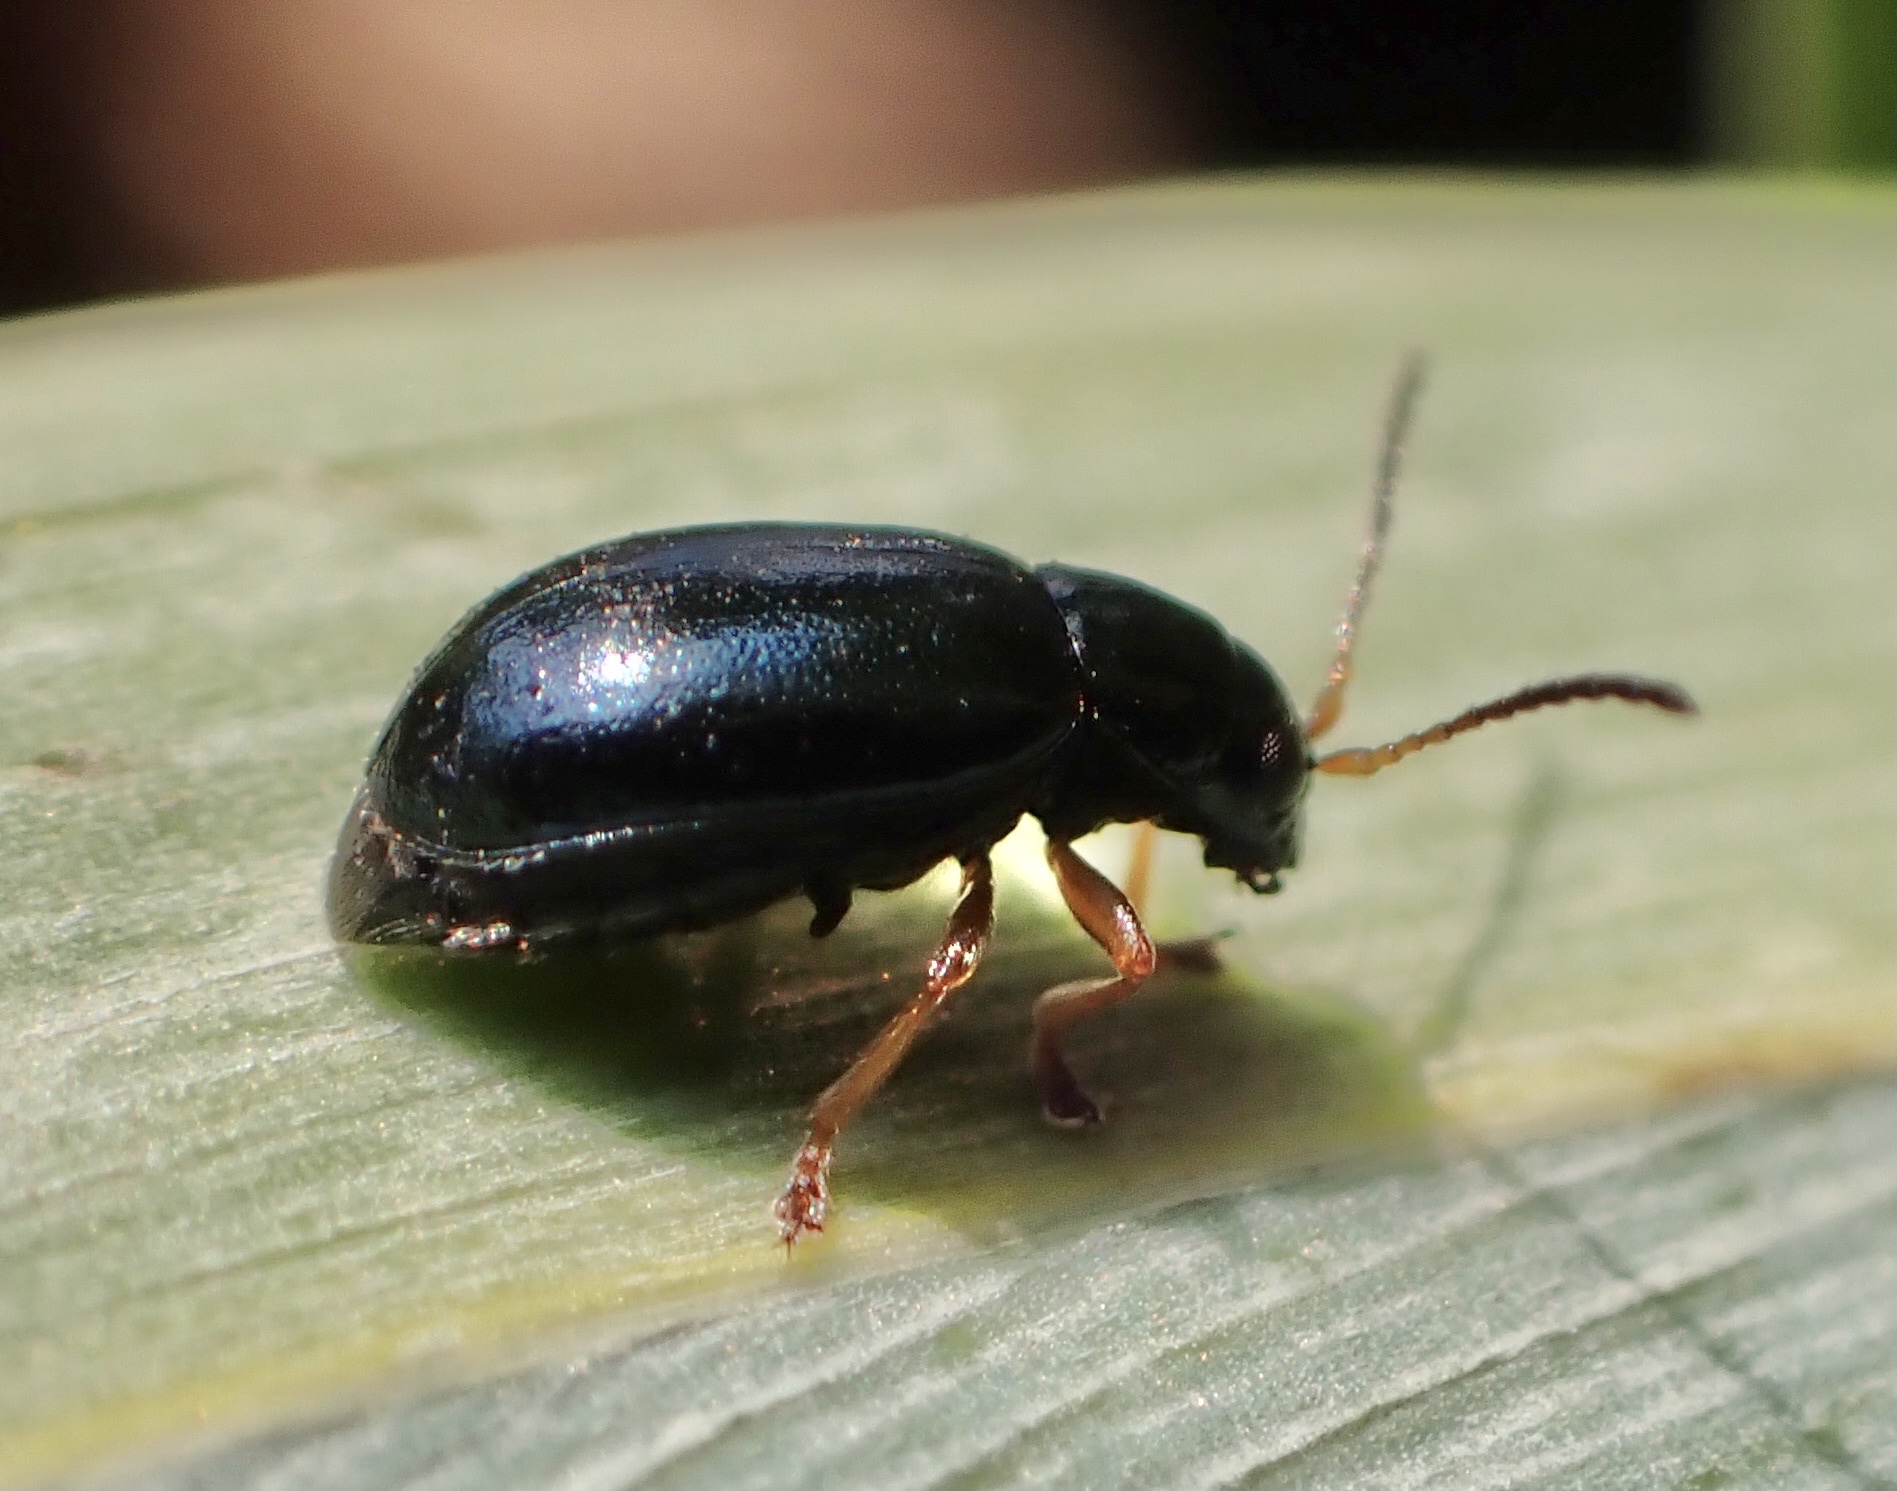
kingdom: Animalia
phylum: Arthropoda
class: Insecta
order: Coleoptera
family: Chrysomelidae
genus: Aphthona
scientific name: Aphthona nonstriata
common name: Iris flea beetle
